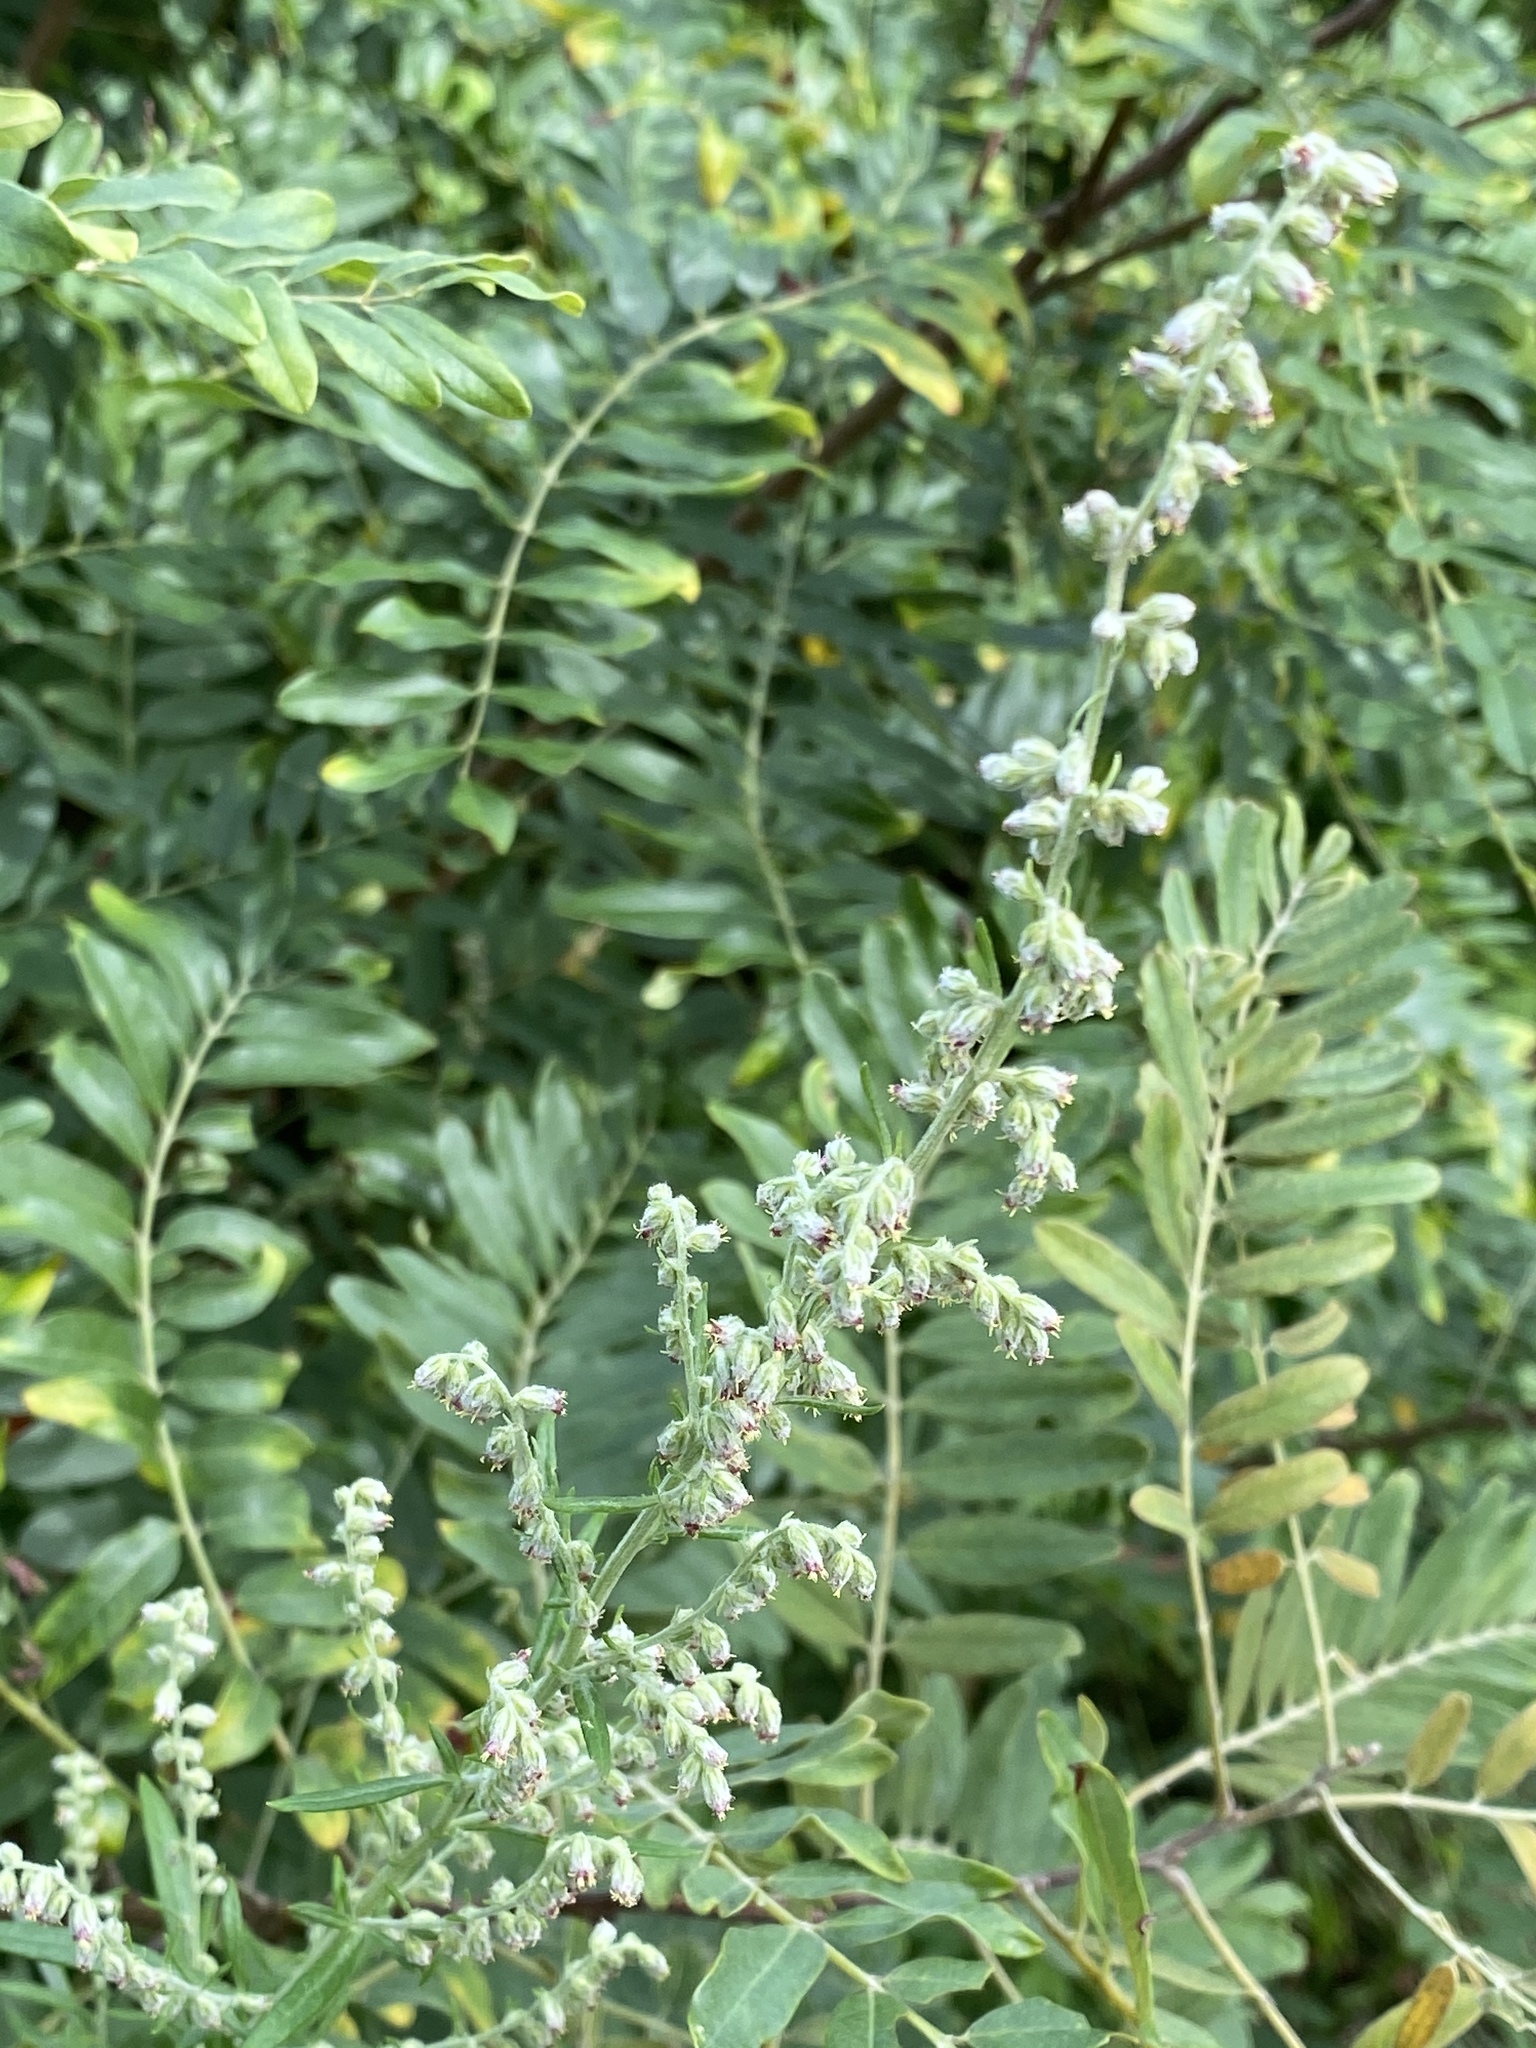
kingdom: Plantae
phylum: Tracheophyta
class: Magnoliopsida
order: Asterales
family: Asteraceae
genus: Artemisia
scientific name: Artemisia vulgaris
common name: Mugwort
